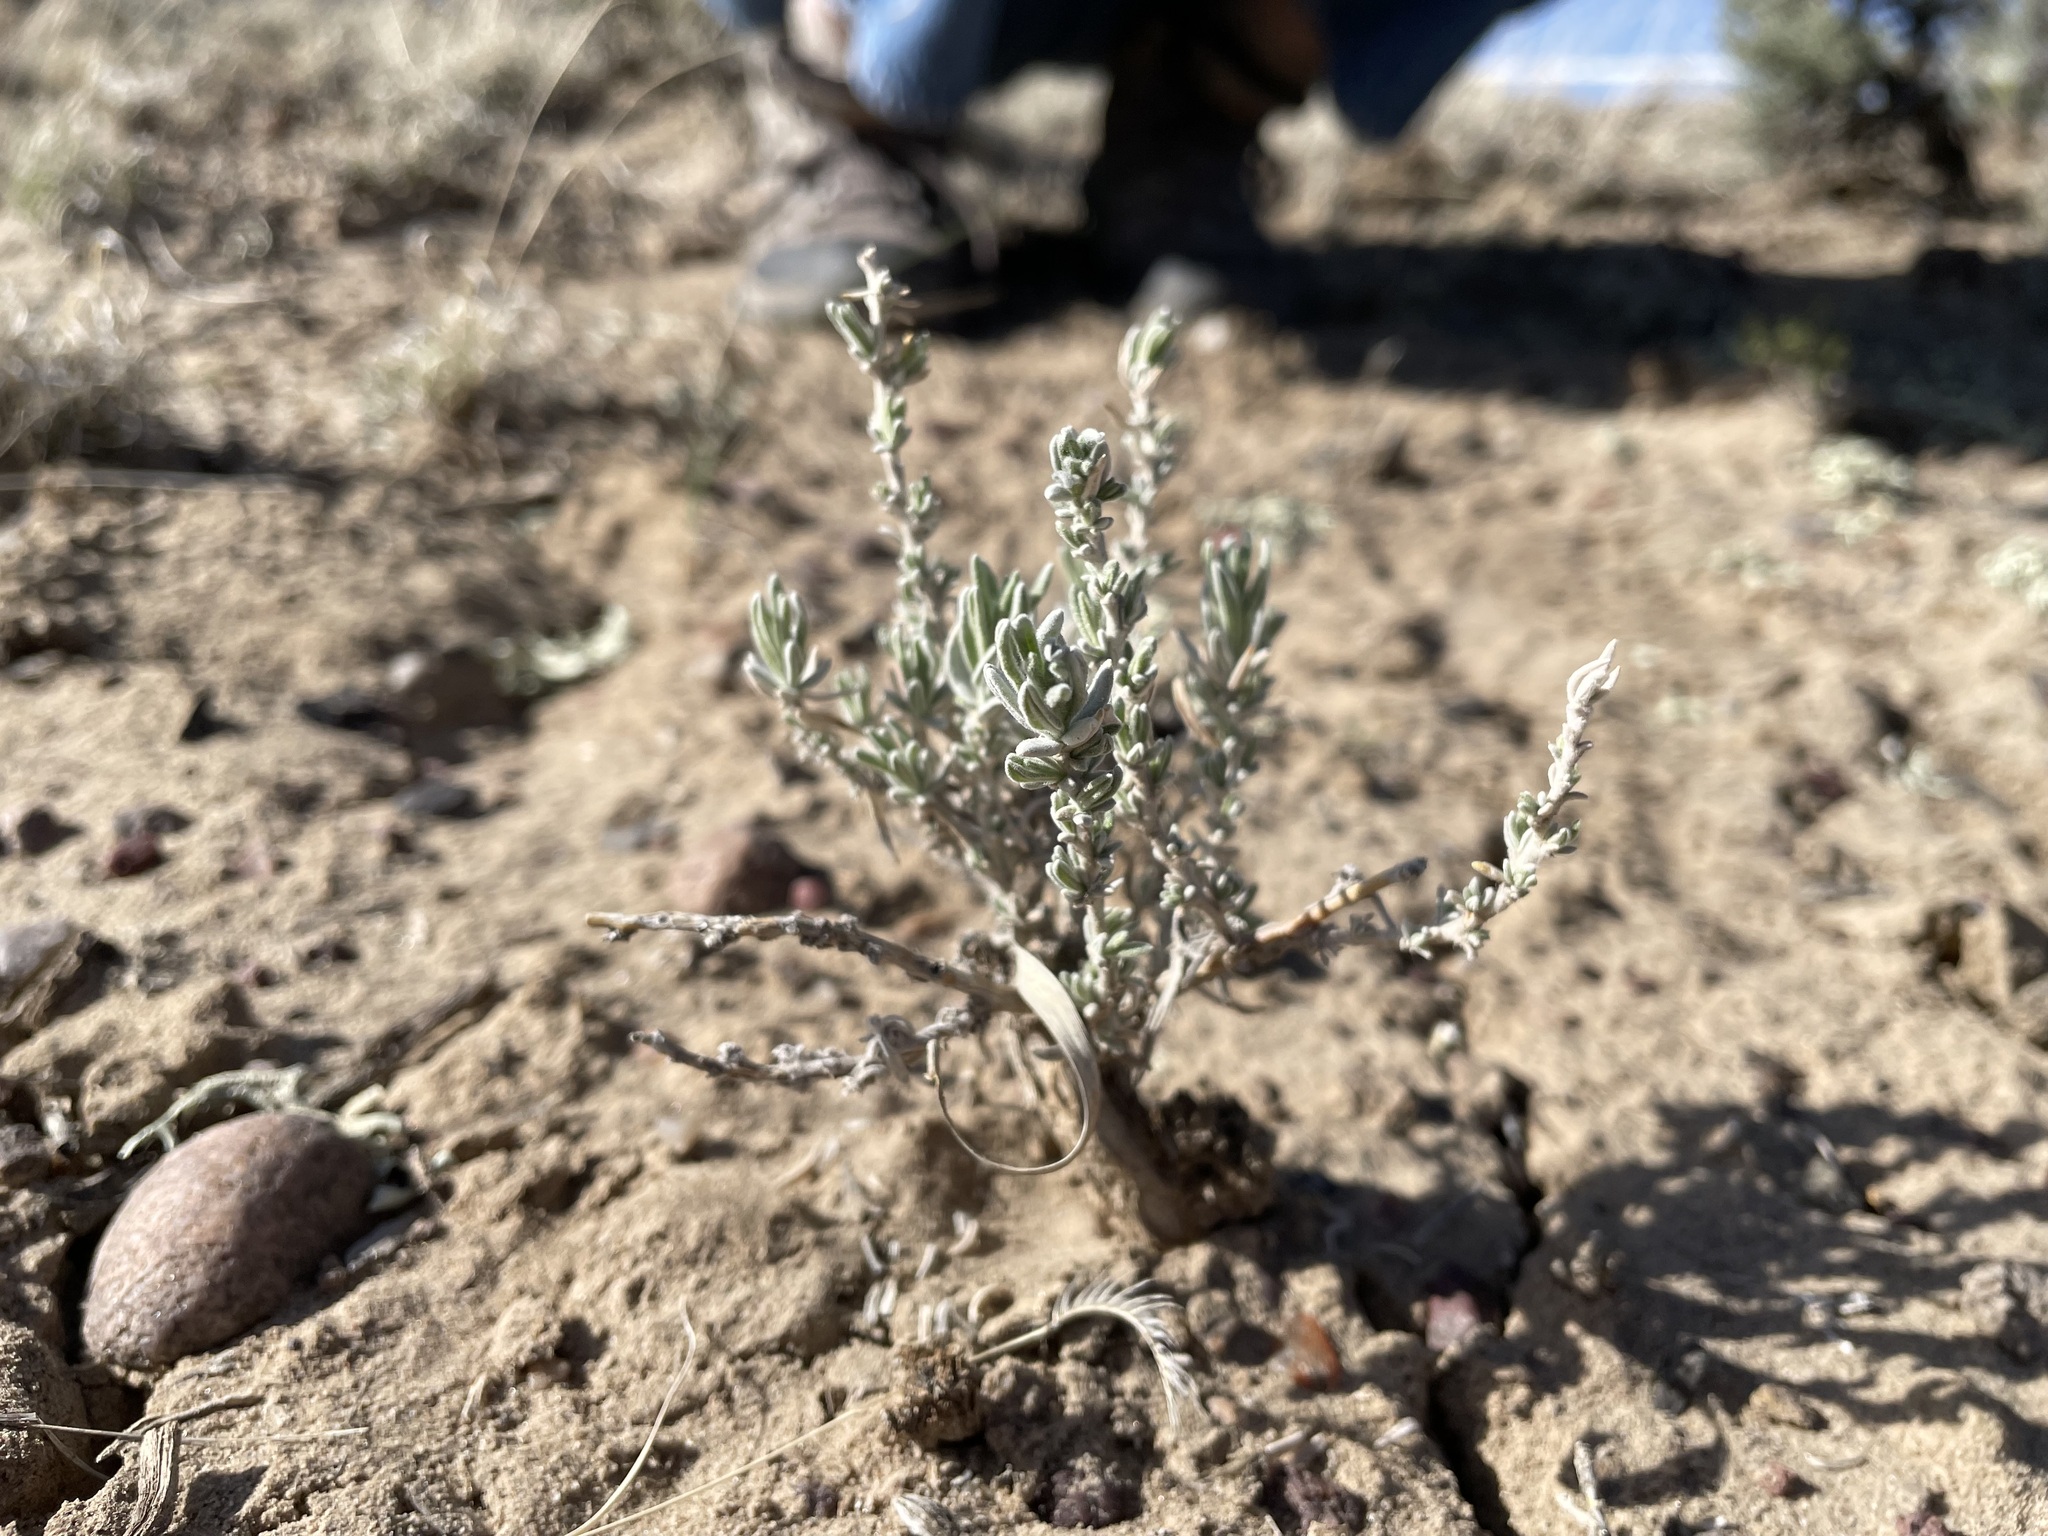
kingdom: Plantae
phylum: Tracheophyta
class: Magnoliopsida
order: Caryophyllales
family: Amaranthaceae
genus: Krascheninnikovia
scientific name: Krascheninnikovia lanata
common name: Winterfat
